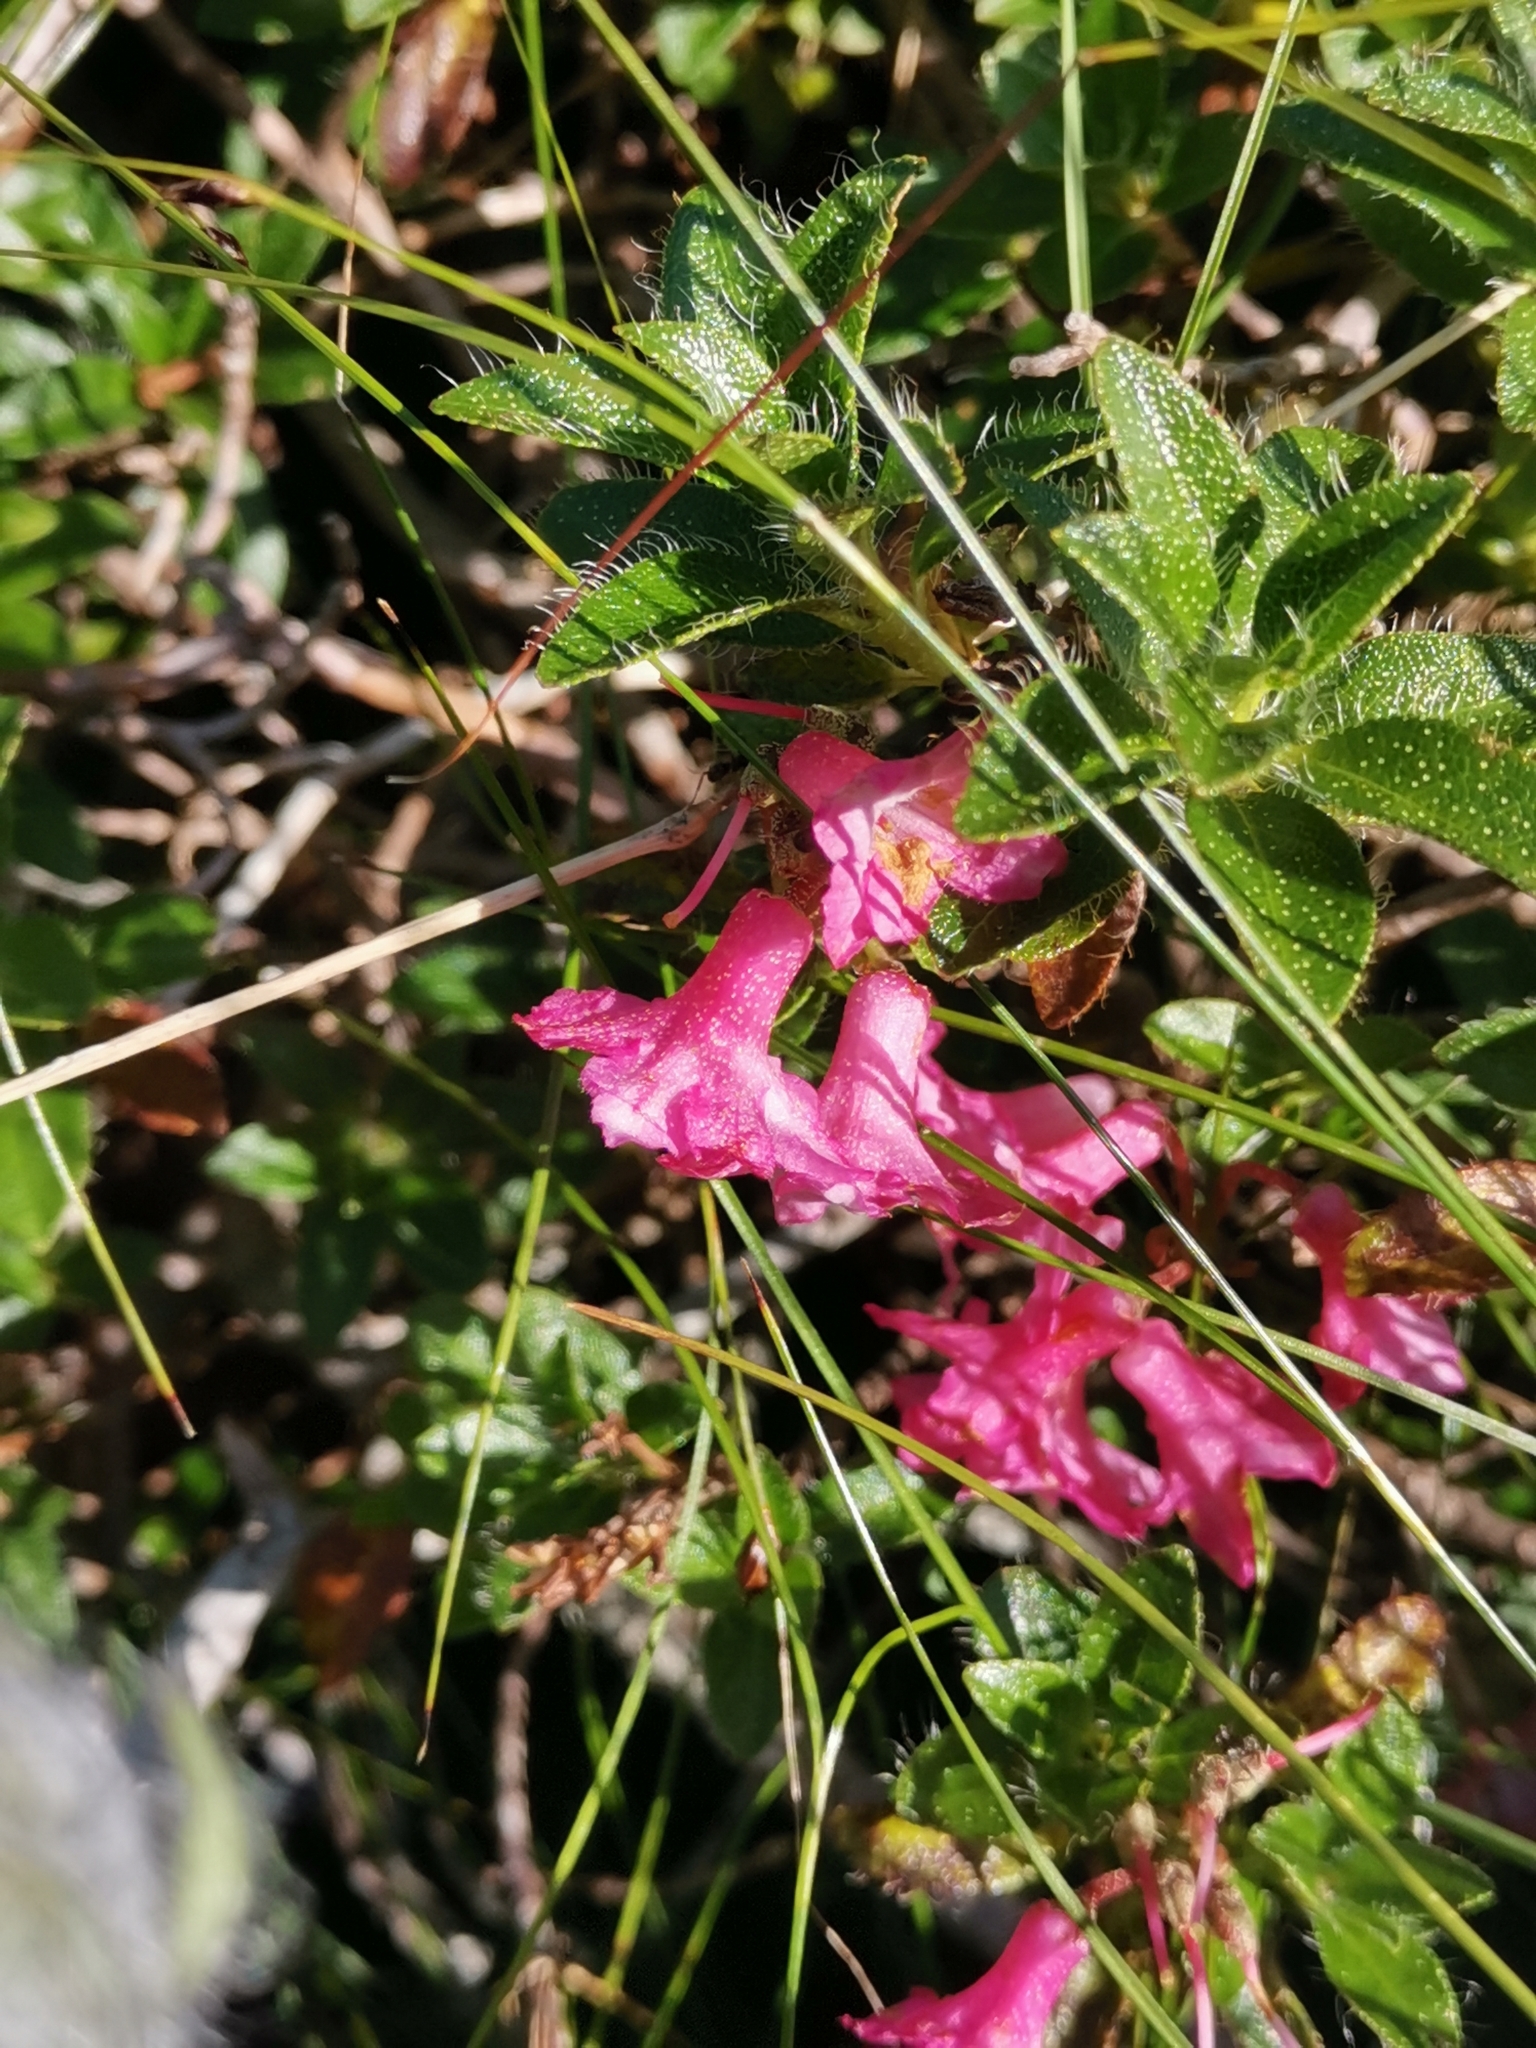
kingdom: Plantae
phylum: Tracheophyta
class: Magnoliopsida
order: Ericales
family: Ericaceae
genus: Rhododendron
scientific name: Rhododendron hirsutum
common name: Hairy alpenrose
